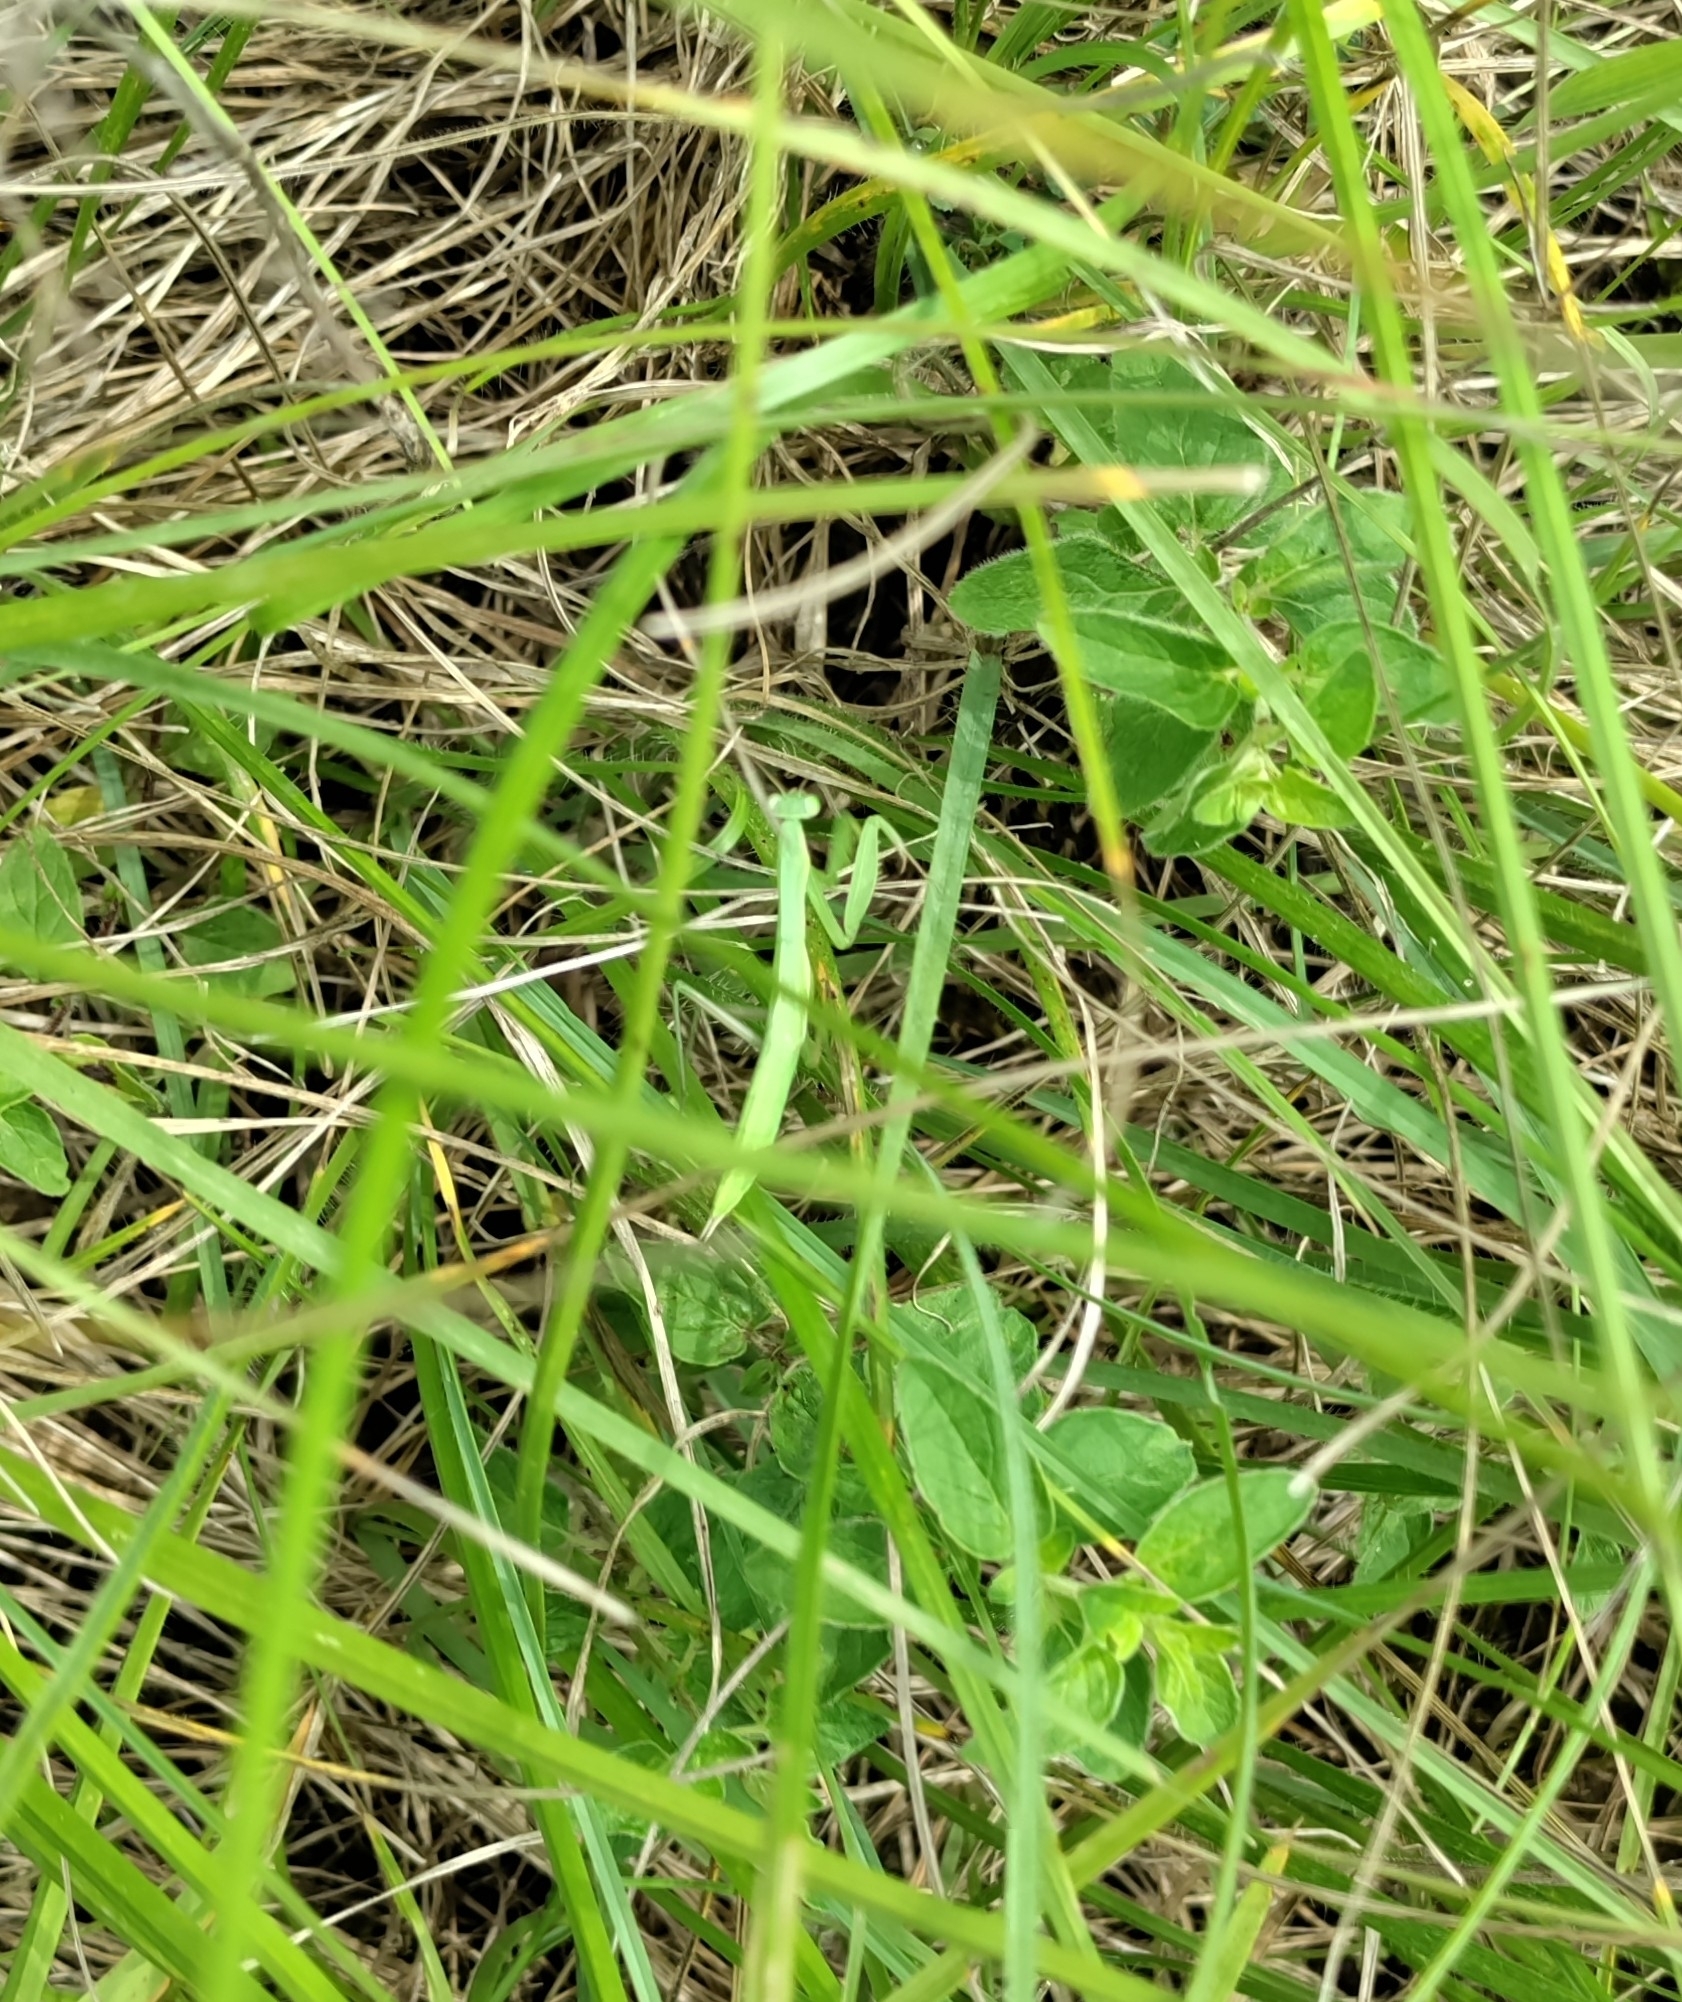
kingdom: Animalia
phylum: Arthropoda
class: Insecta
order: Mantodea
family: Mantidae
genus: Mantis
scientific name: Mantis religiosa
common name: Praying mantis
